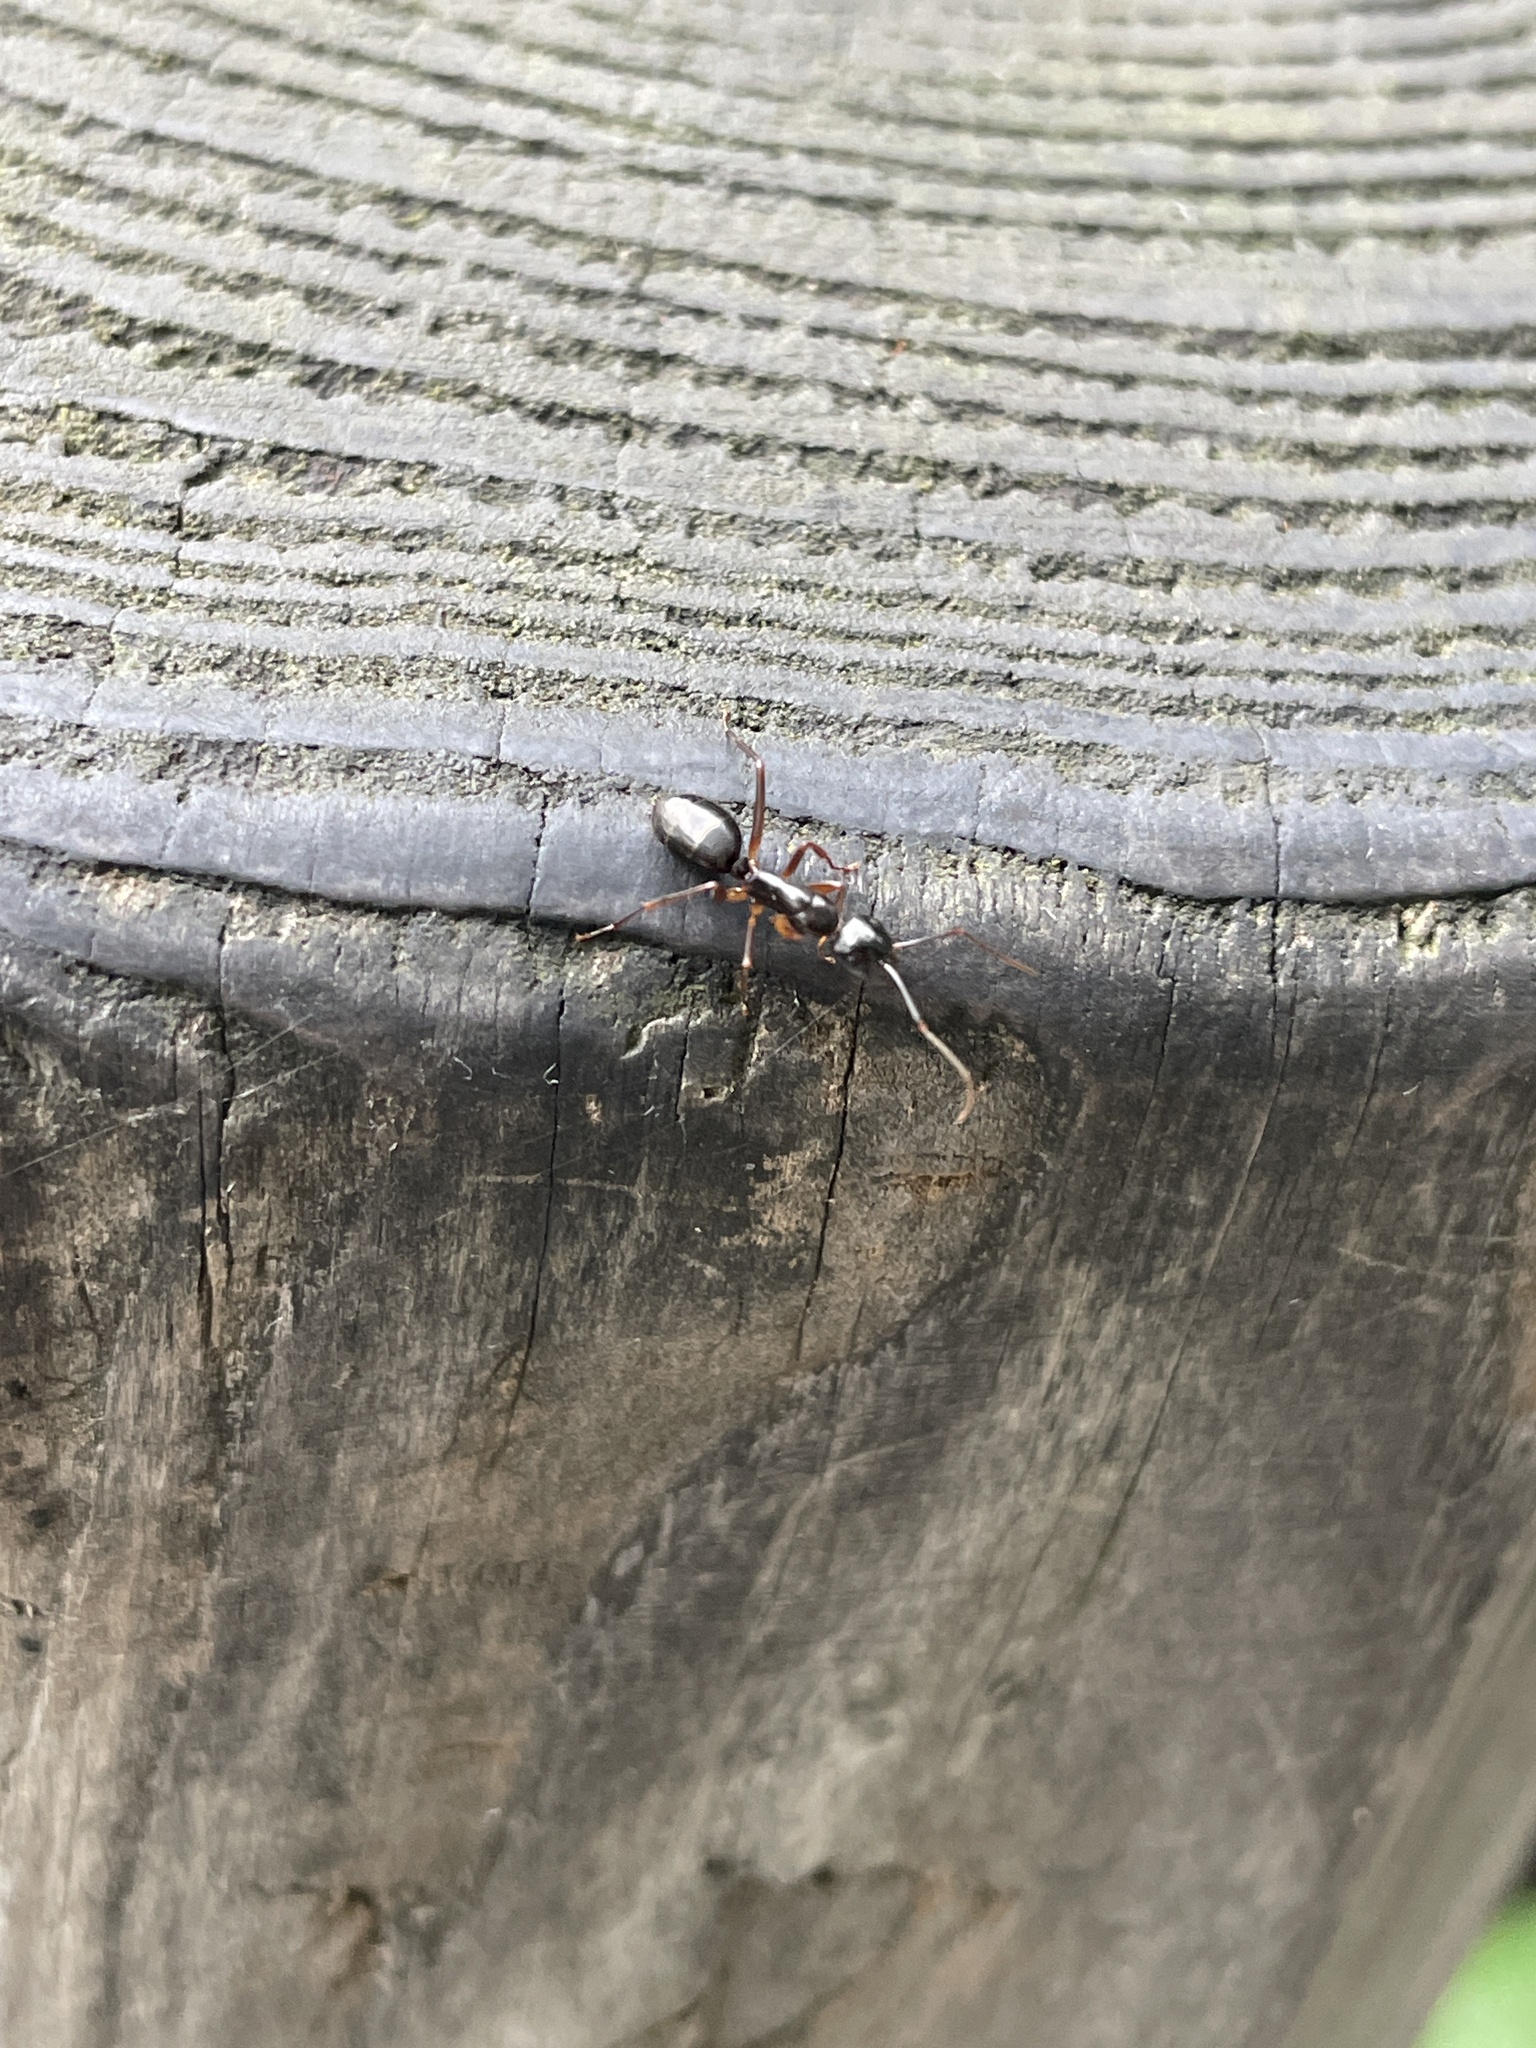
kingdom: Animalia
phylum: Arthropoda
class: Insecta
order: Hymenoptera
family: Formicidae
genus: Camponotus
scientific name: Camponotus kiusiuensis
